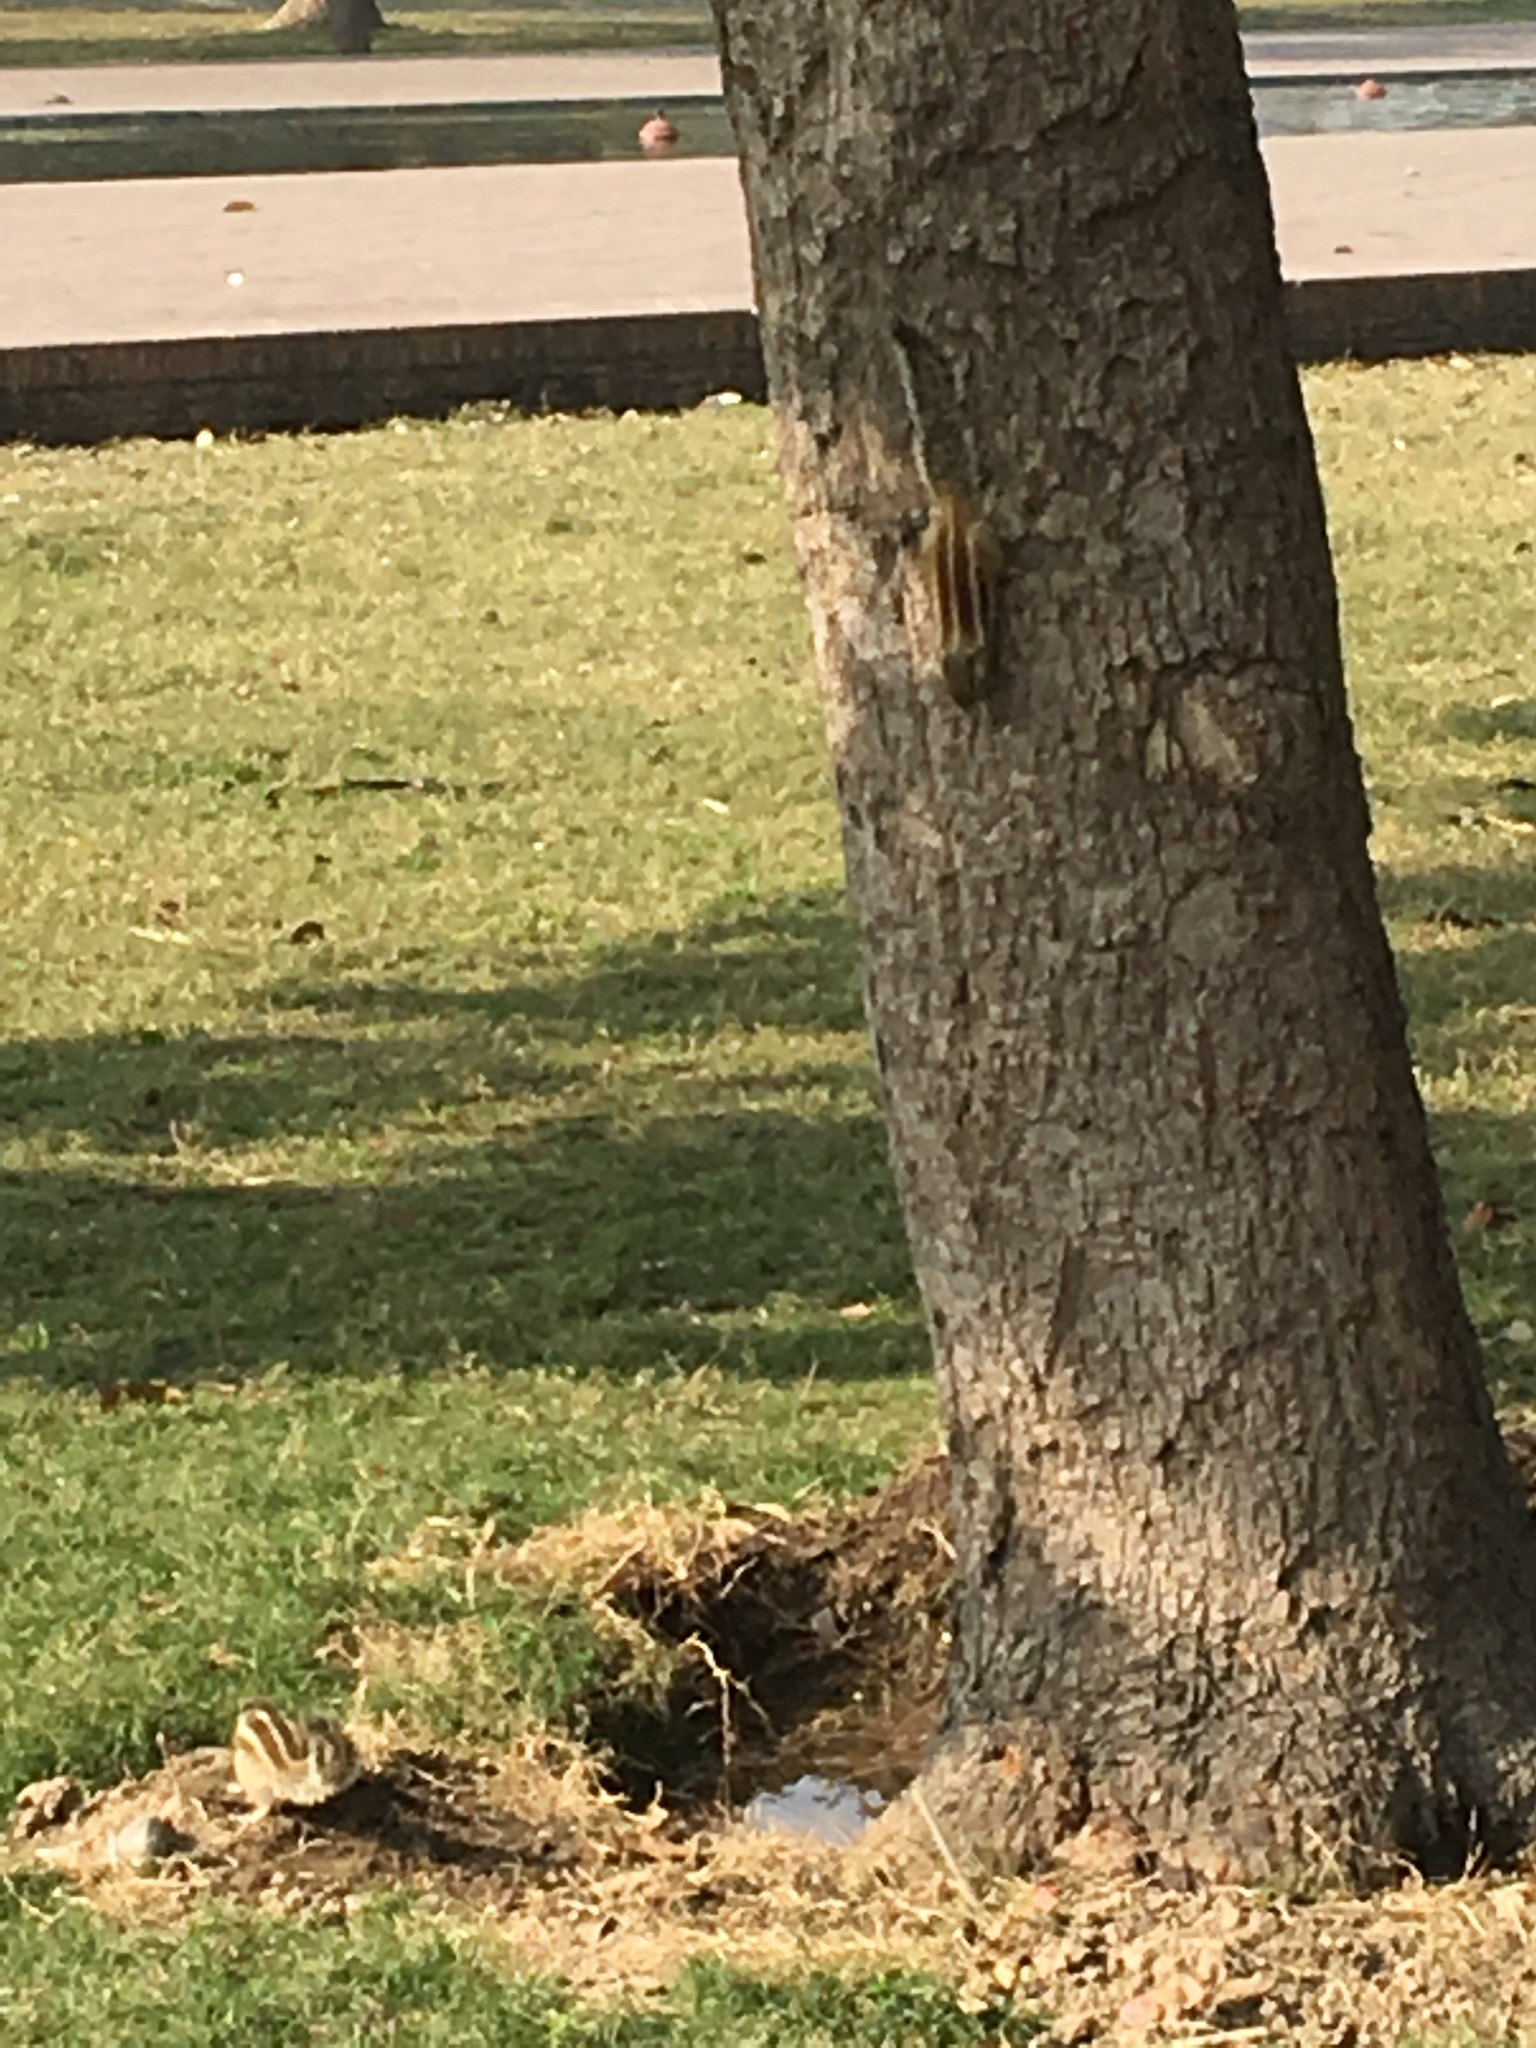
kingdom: Animalia
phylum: Chordata
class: Mammalia
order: Rodentia
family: Sciuridae
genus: Funambulus
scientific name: Funambulus pennantii
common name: Northern palm squirrel
